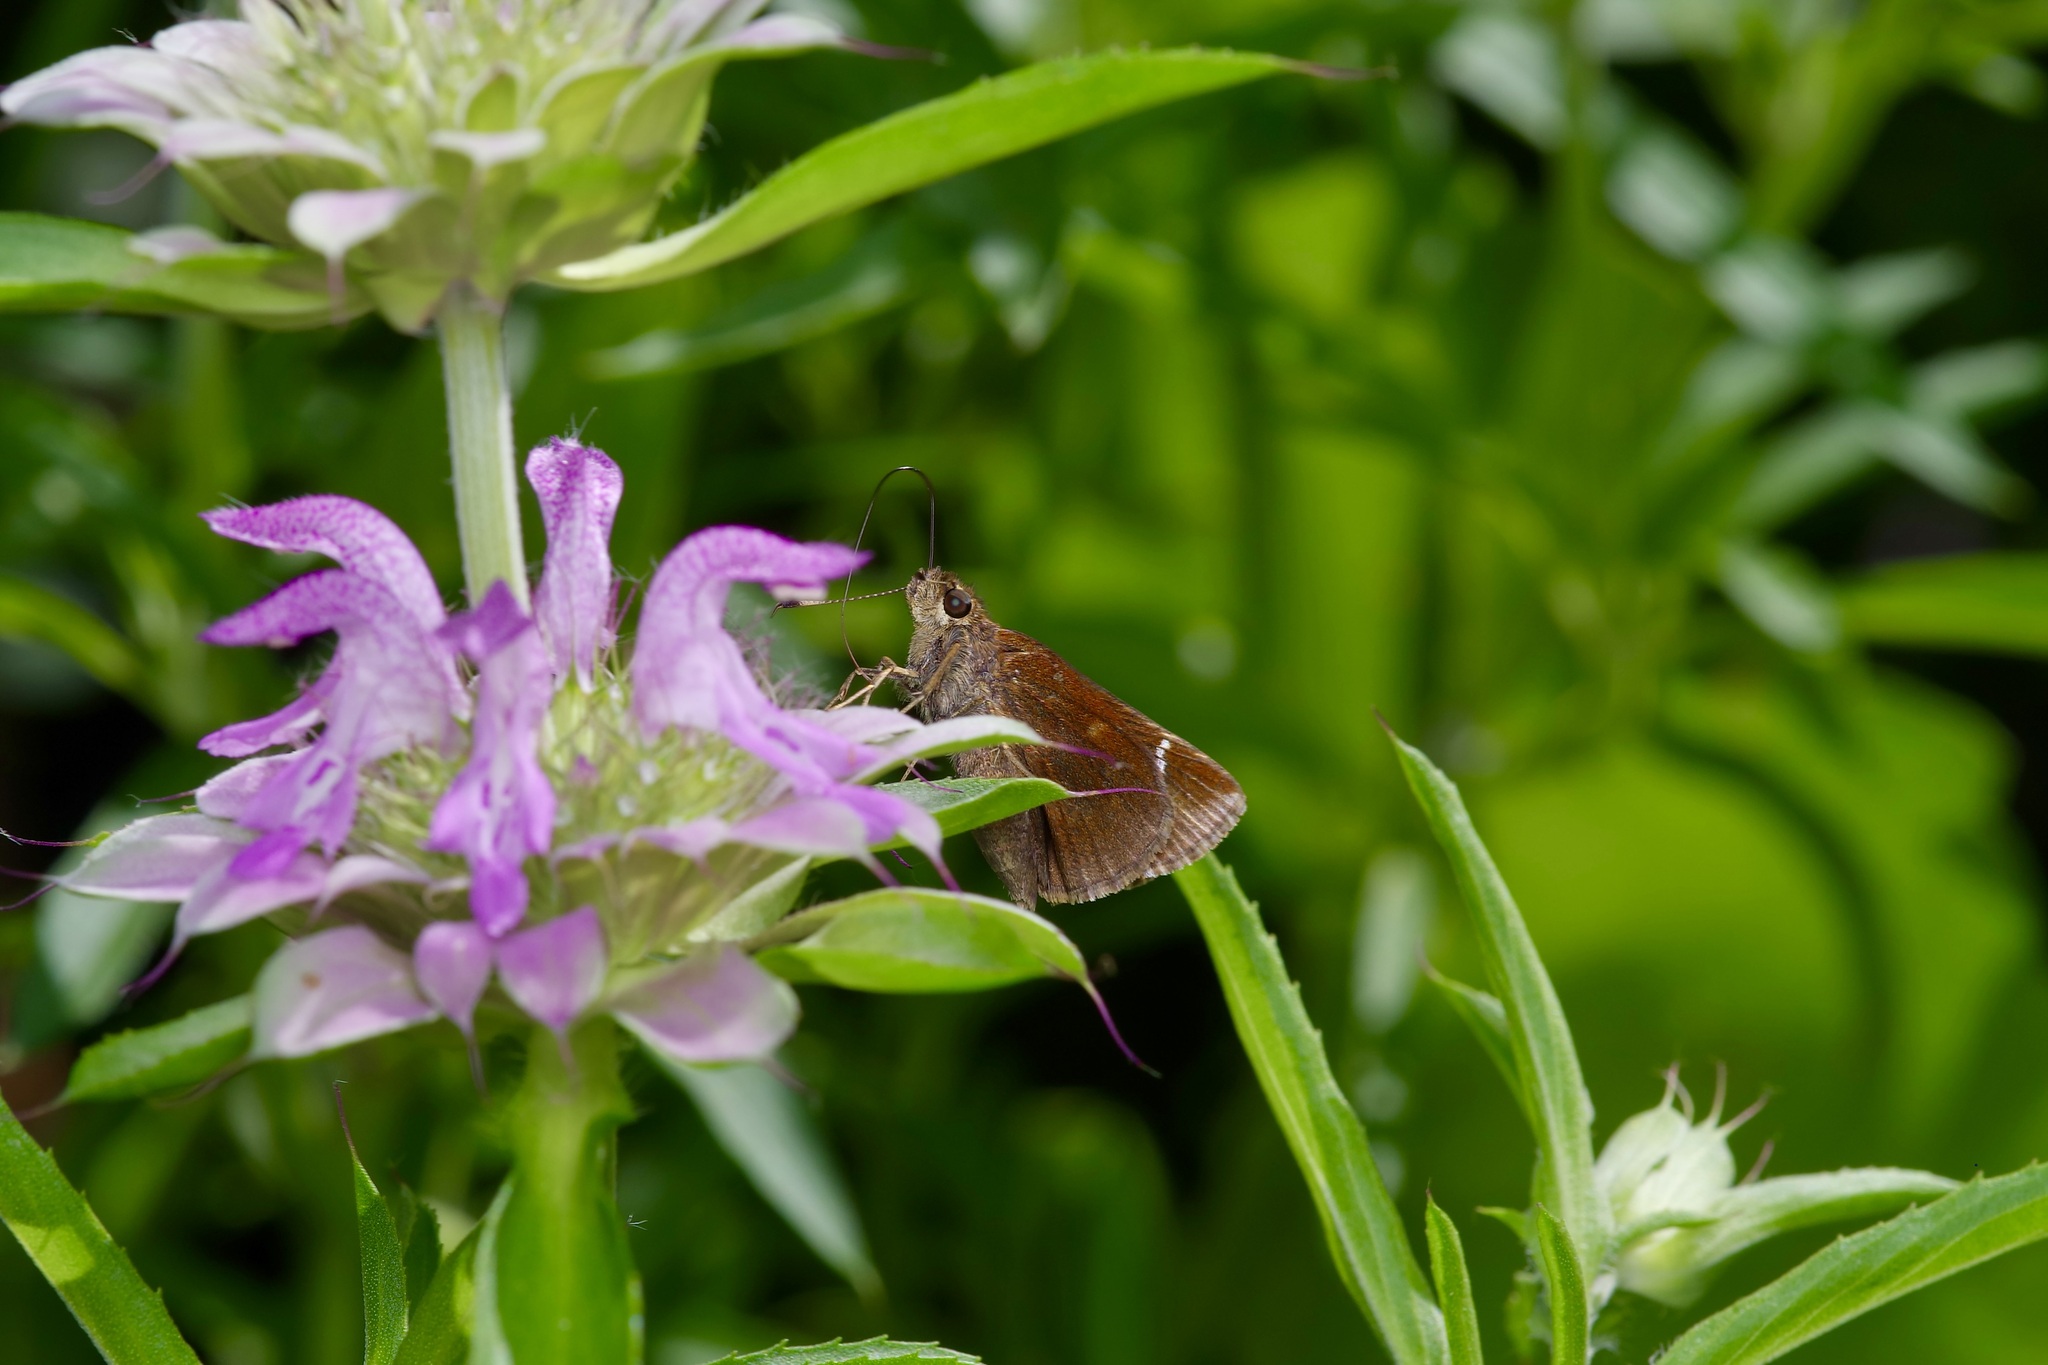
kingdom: Animalia
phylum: Arthropoda
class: Insecta
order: Lepidoptera
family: Hesperiidae
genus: Lerema
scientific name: Lerema accius
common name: Clouded skipper
